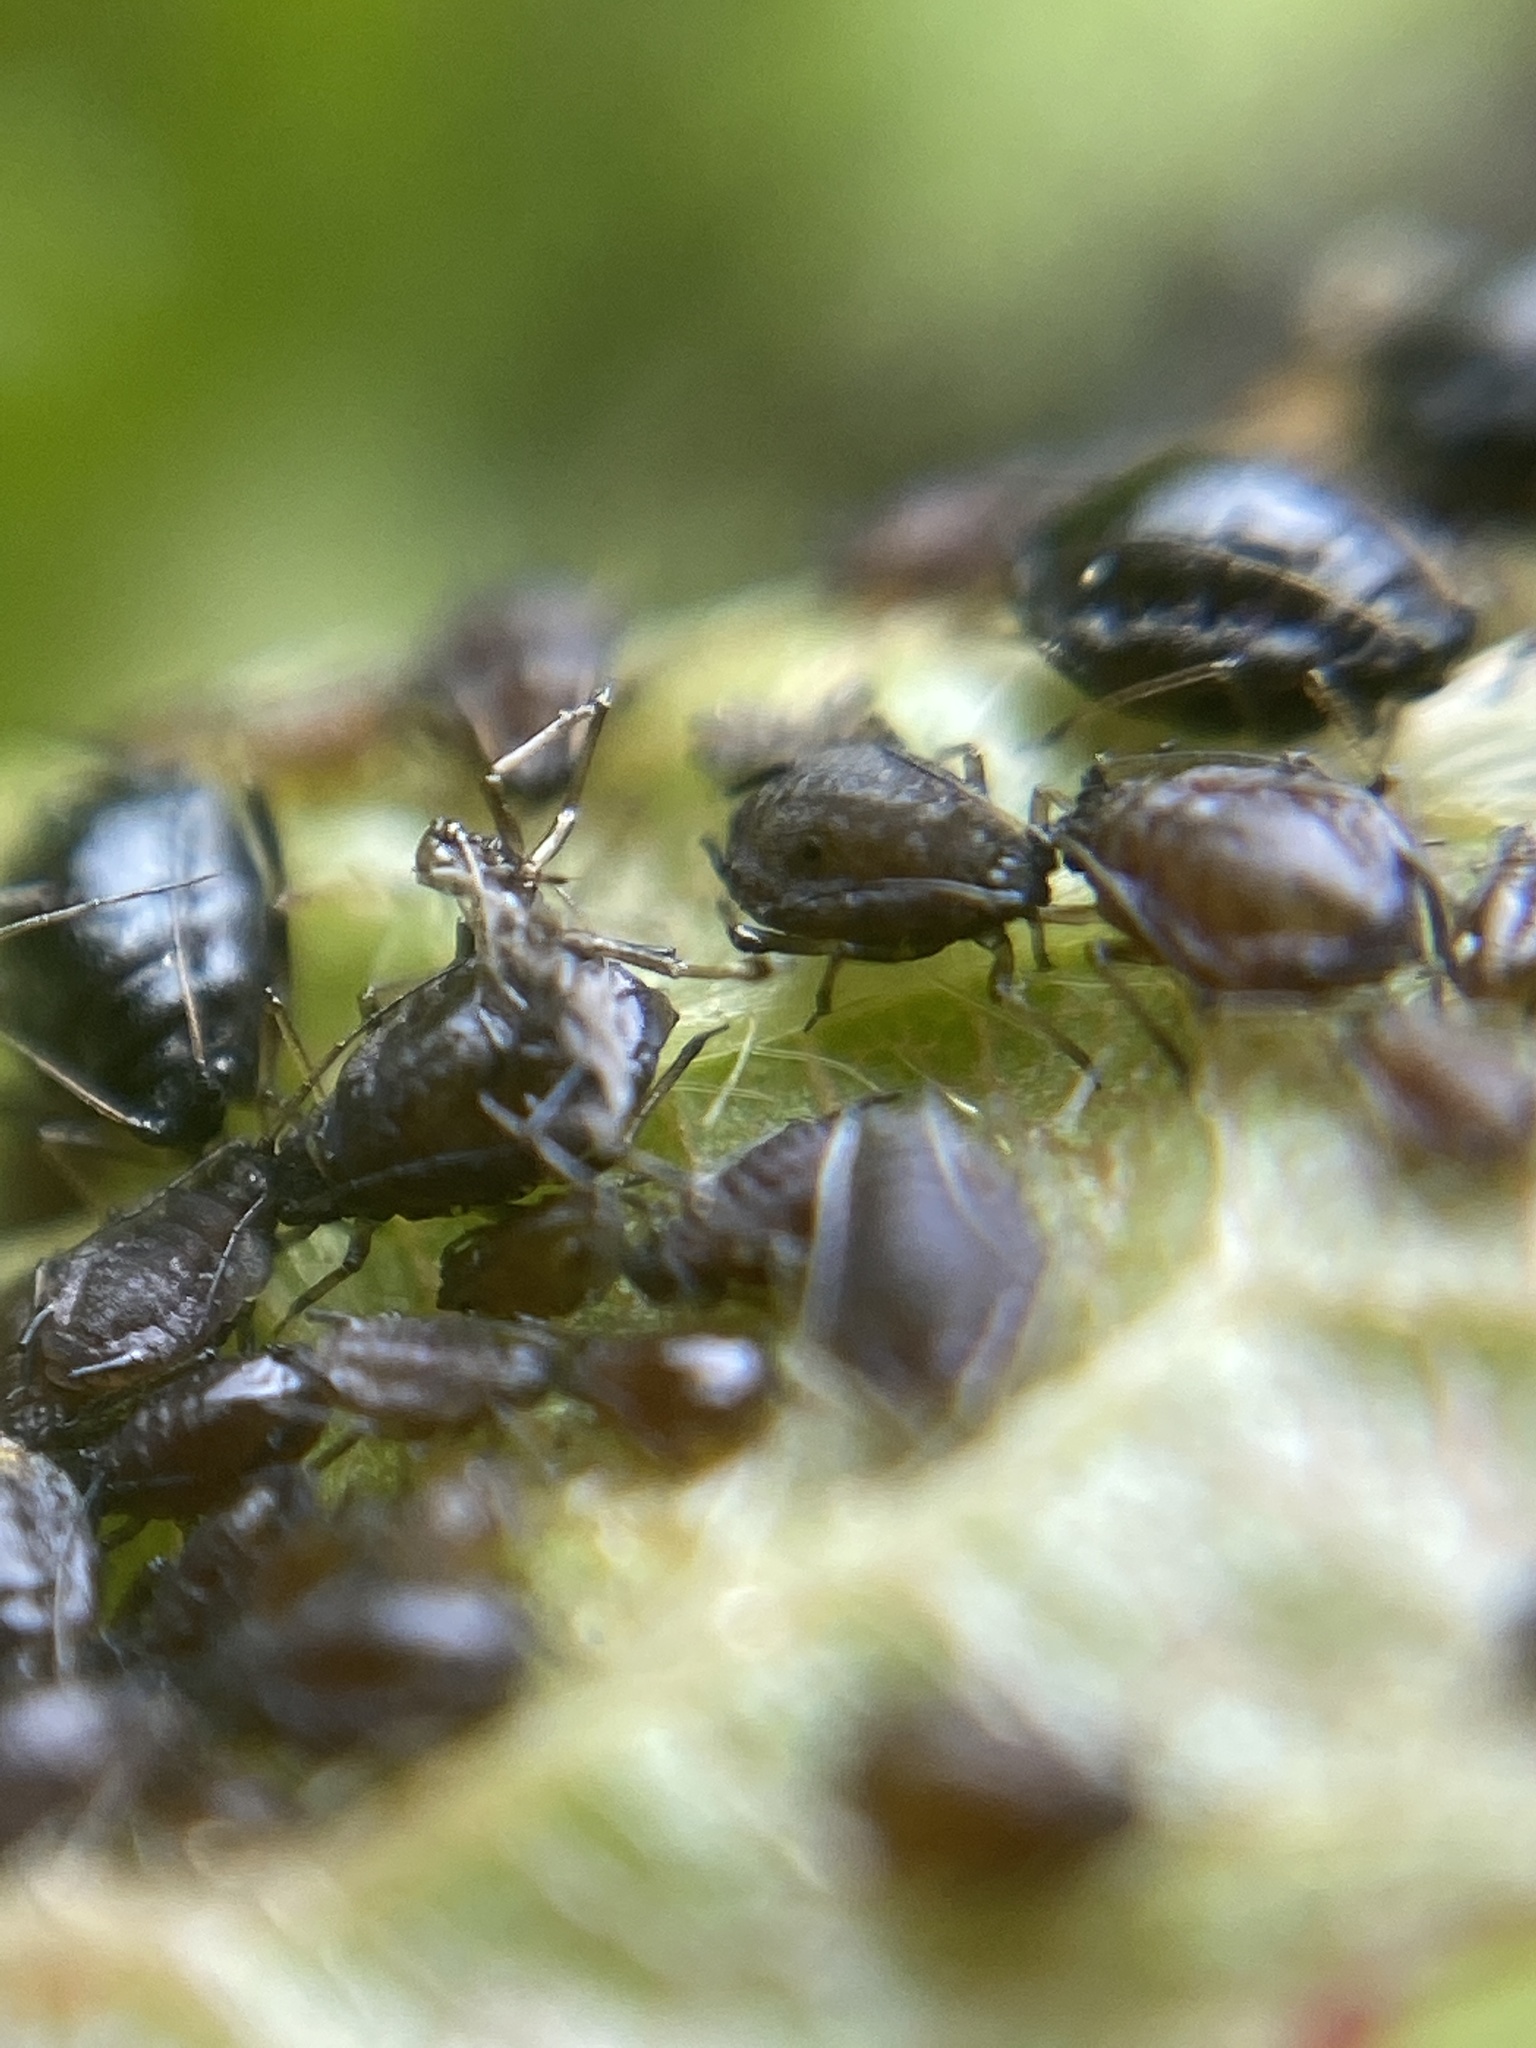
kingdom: Animalia
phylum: Arthropoda
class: Insecta
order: Hemiptera
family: Aphididae
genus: Myzus
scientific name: Myzus cerasi
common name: Black cherry aphid
